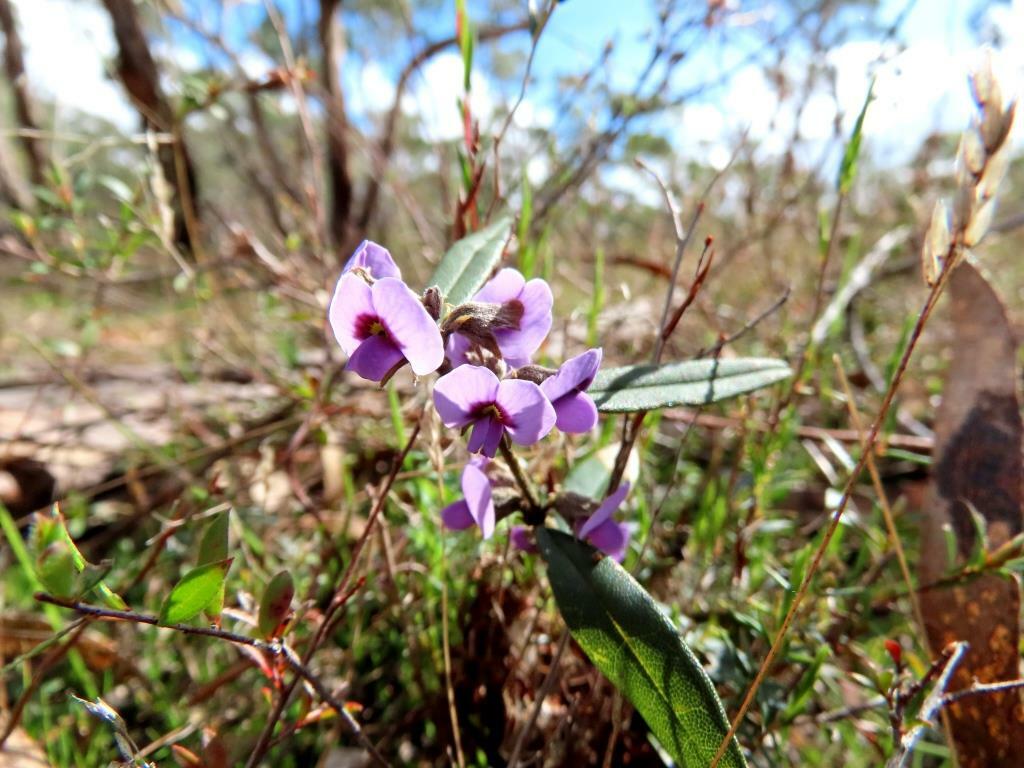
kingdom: Plantae
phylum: Tracheophyta
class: Magnoliopsida
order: Fabales
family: Fabaceae
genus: Hovea
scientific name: Hovea heterophylla
